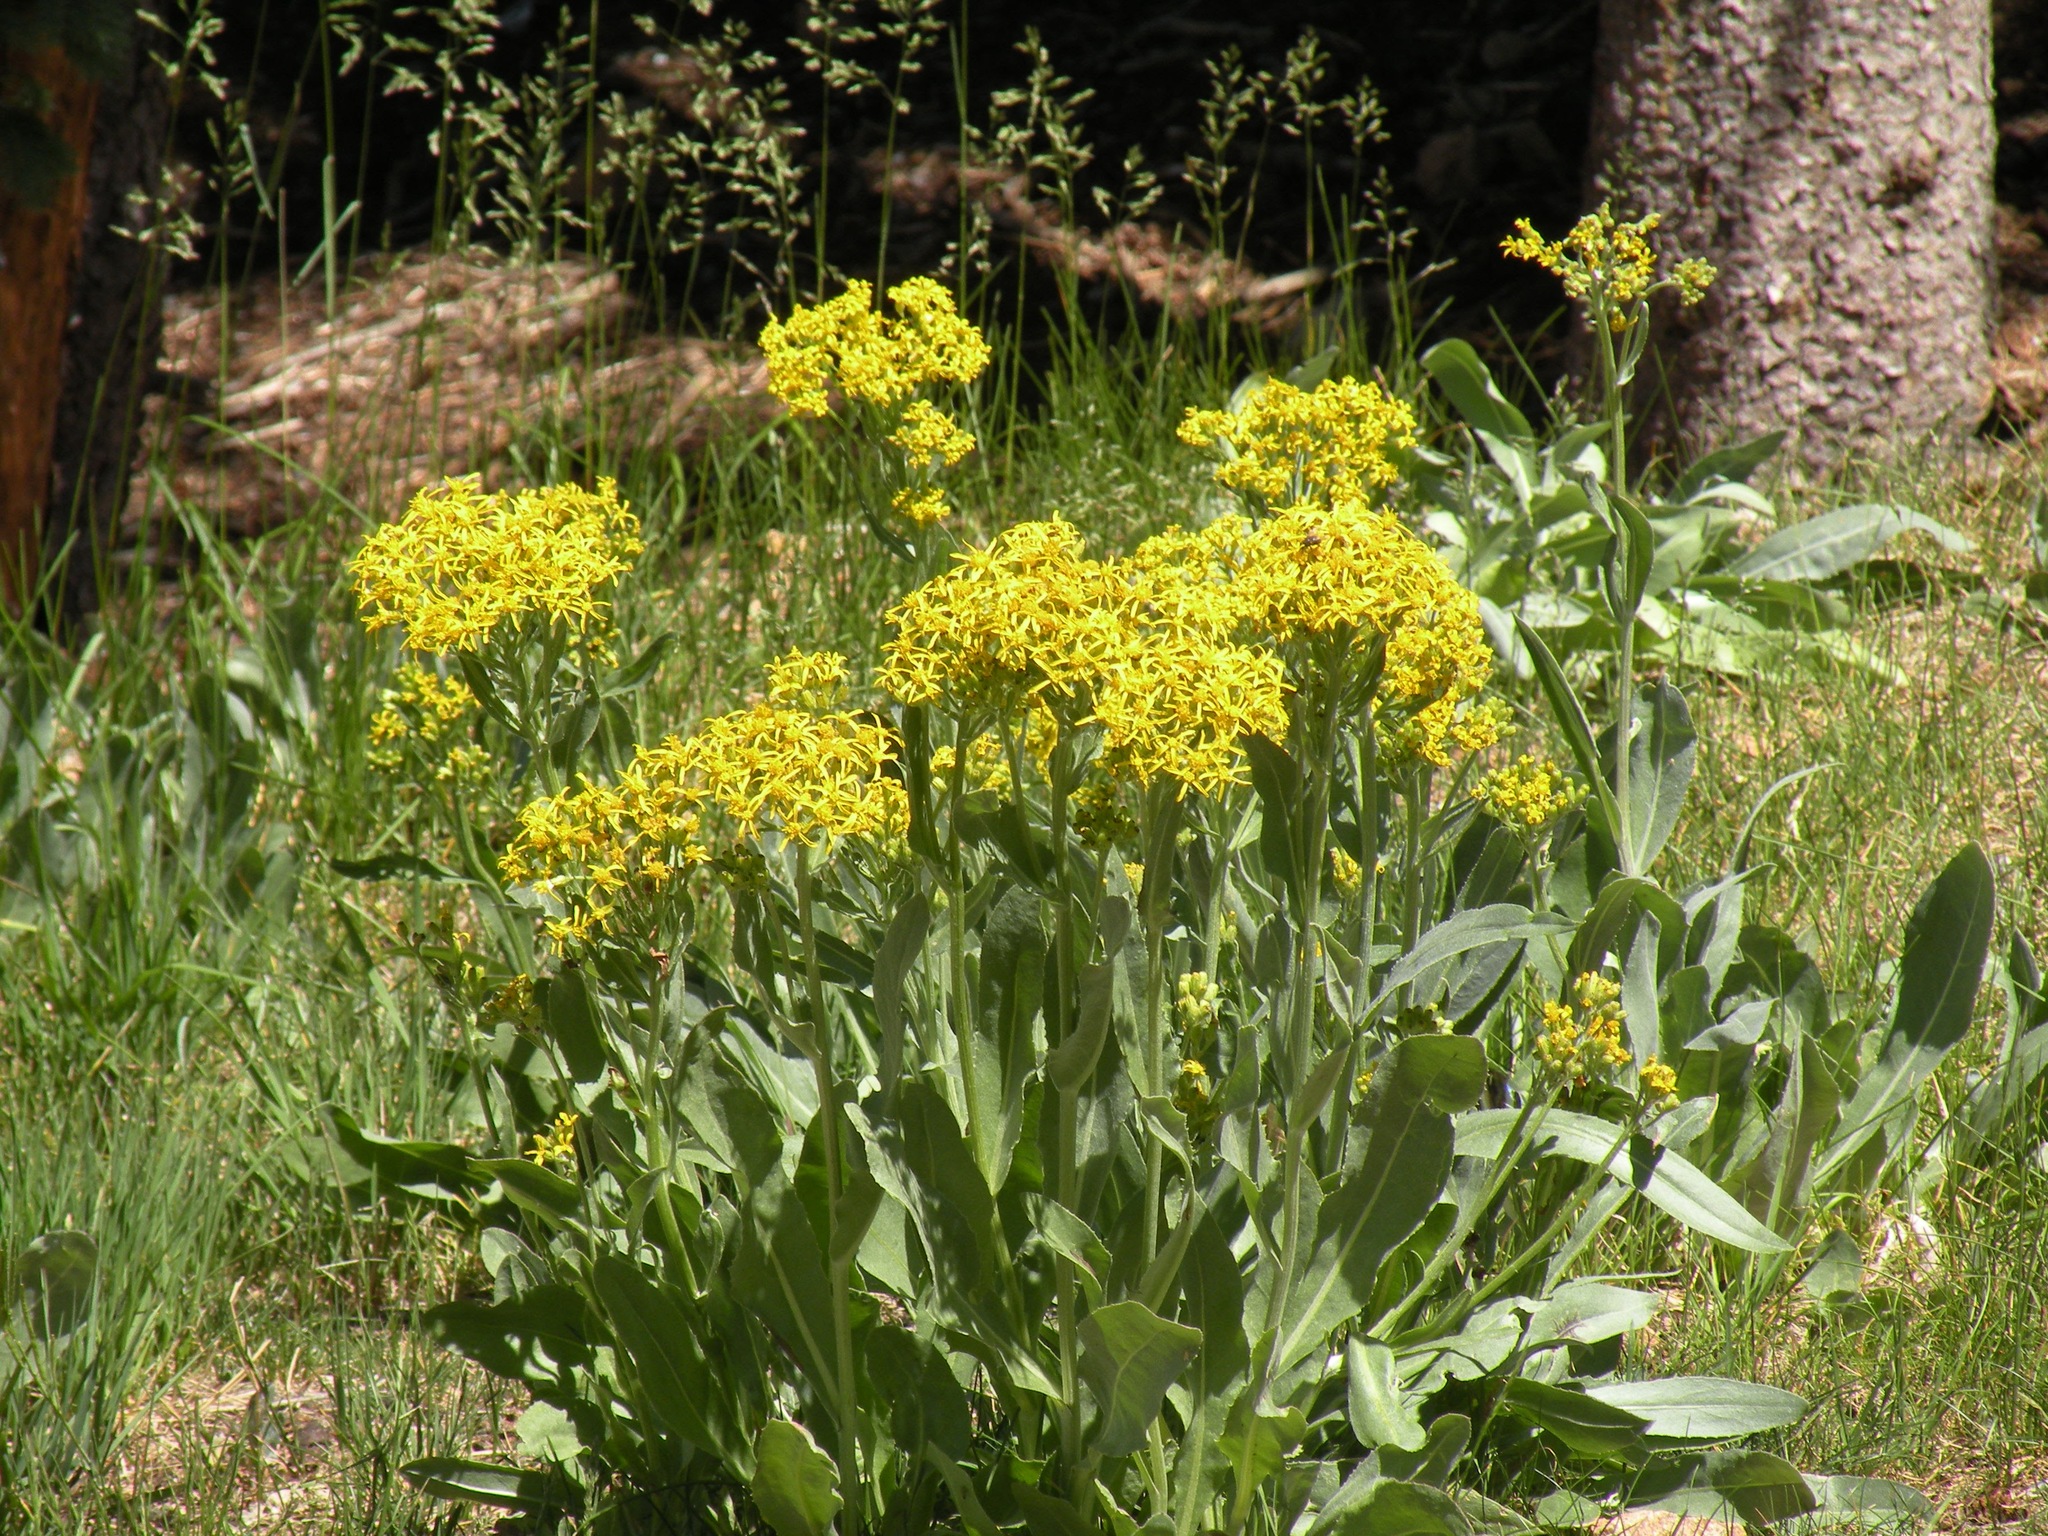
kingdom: Plantae
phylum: Tracheophyta
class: Magnoliopsida
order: Asterales
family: Asteraceae
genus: Senecio
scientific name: Senecio atratus
